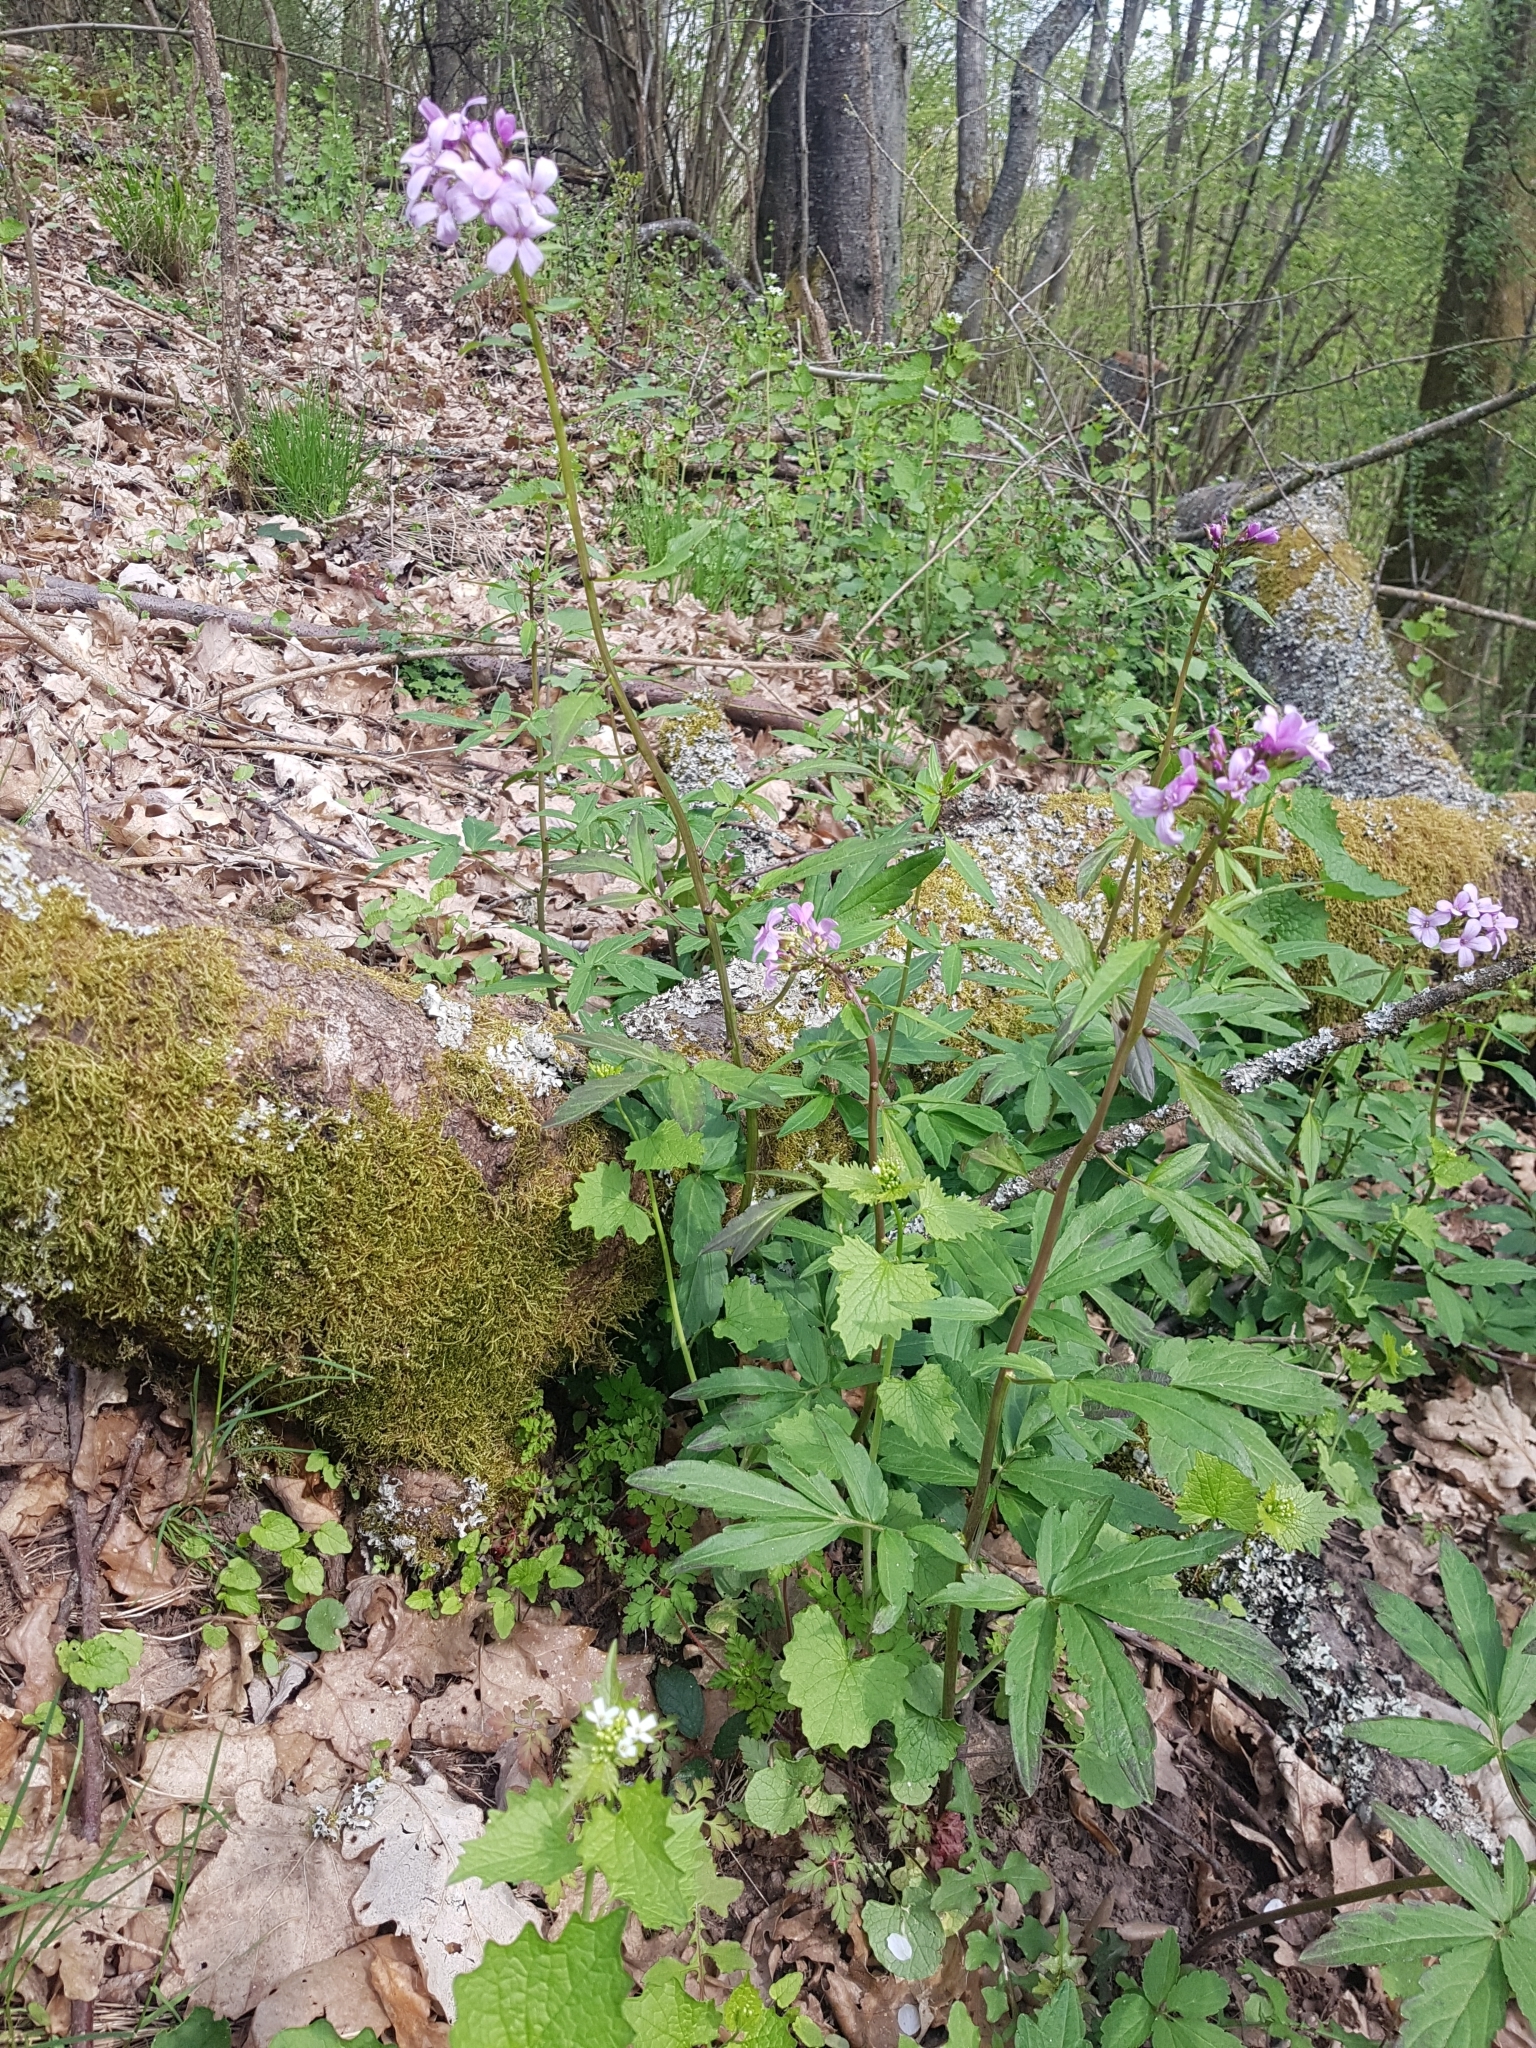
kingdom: Plantae
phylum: Tracheophyta
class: Magnoliopsida
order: Brassicales
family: Brassicaceae
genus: Cardamine
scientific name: Cardamine bulbifera
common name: Coralroot bittercress
